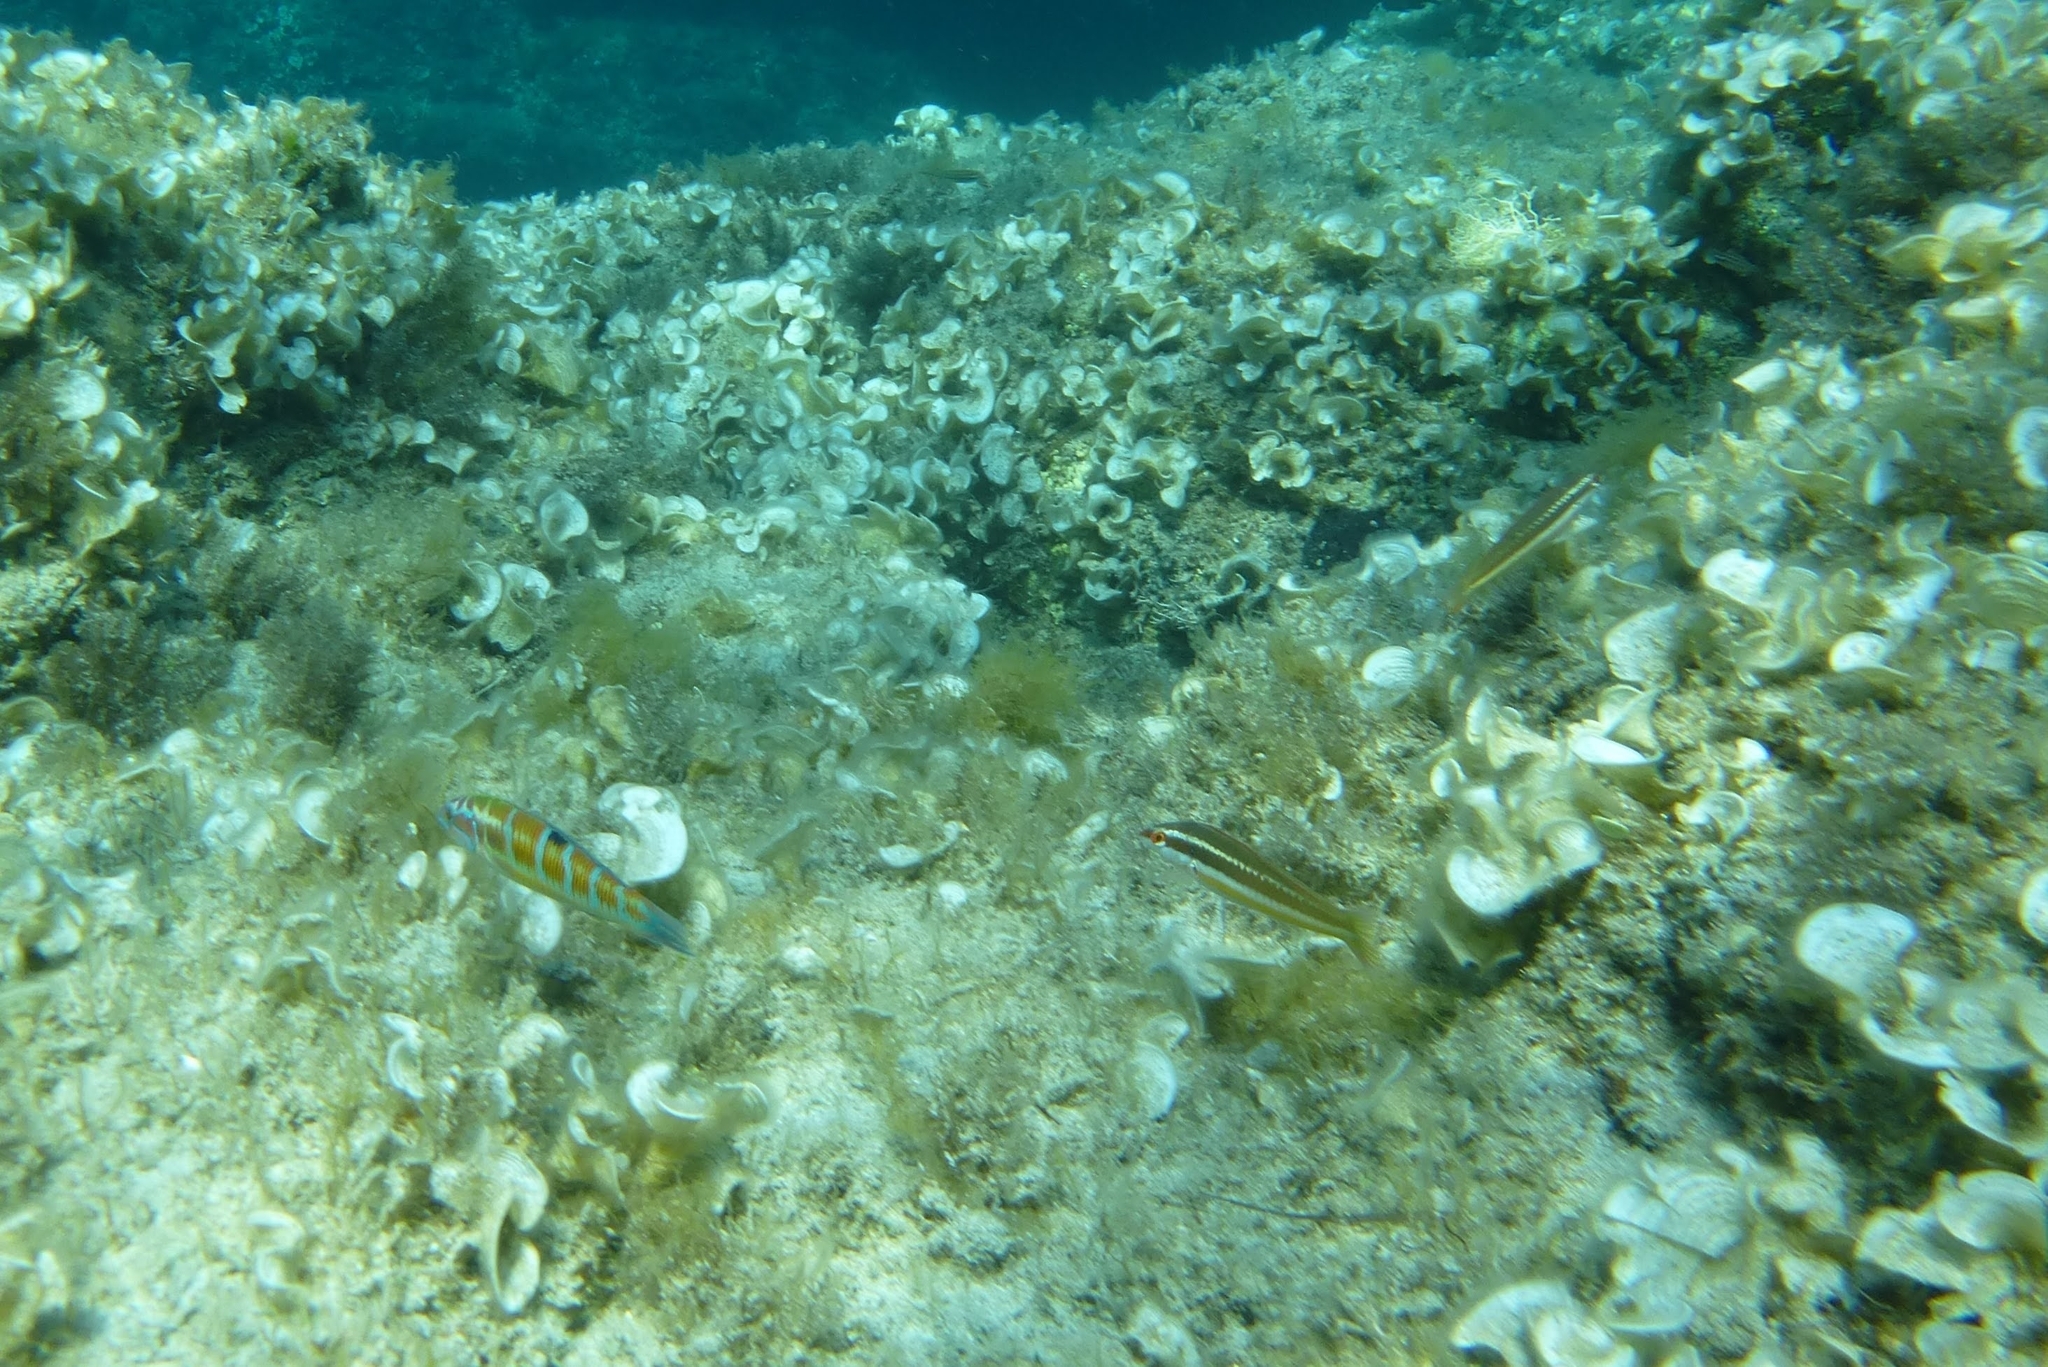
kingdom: Animalia
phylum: Chordata
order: Perciformes
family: Labridae
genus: Thalassoma
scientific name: Thalassoma pavo
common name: Ornate wrasse
